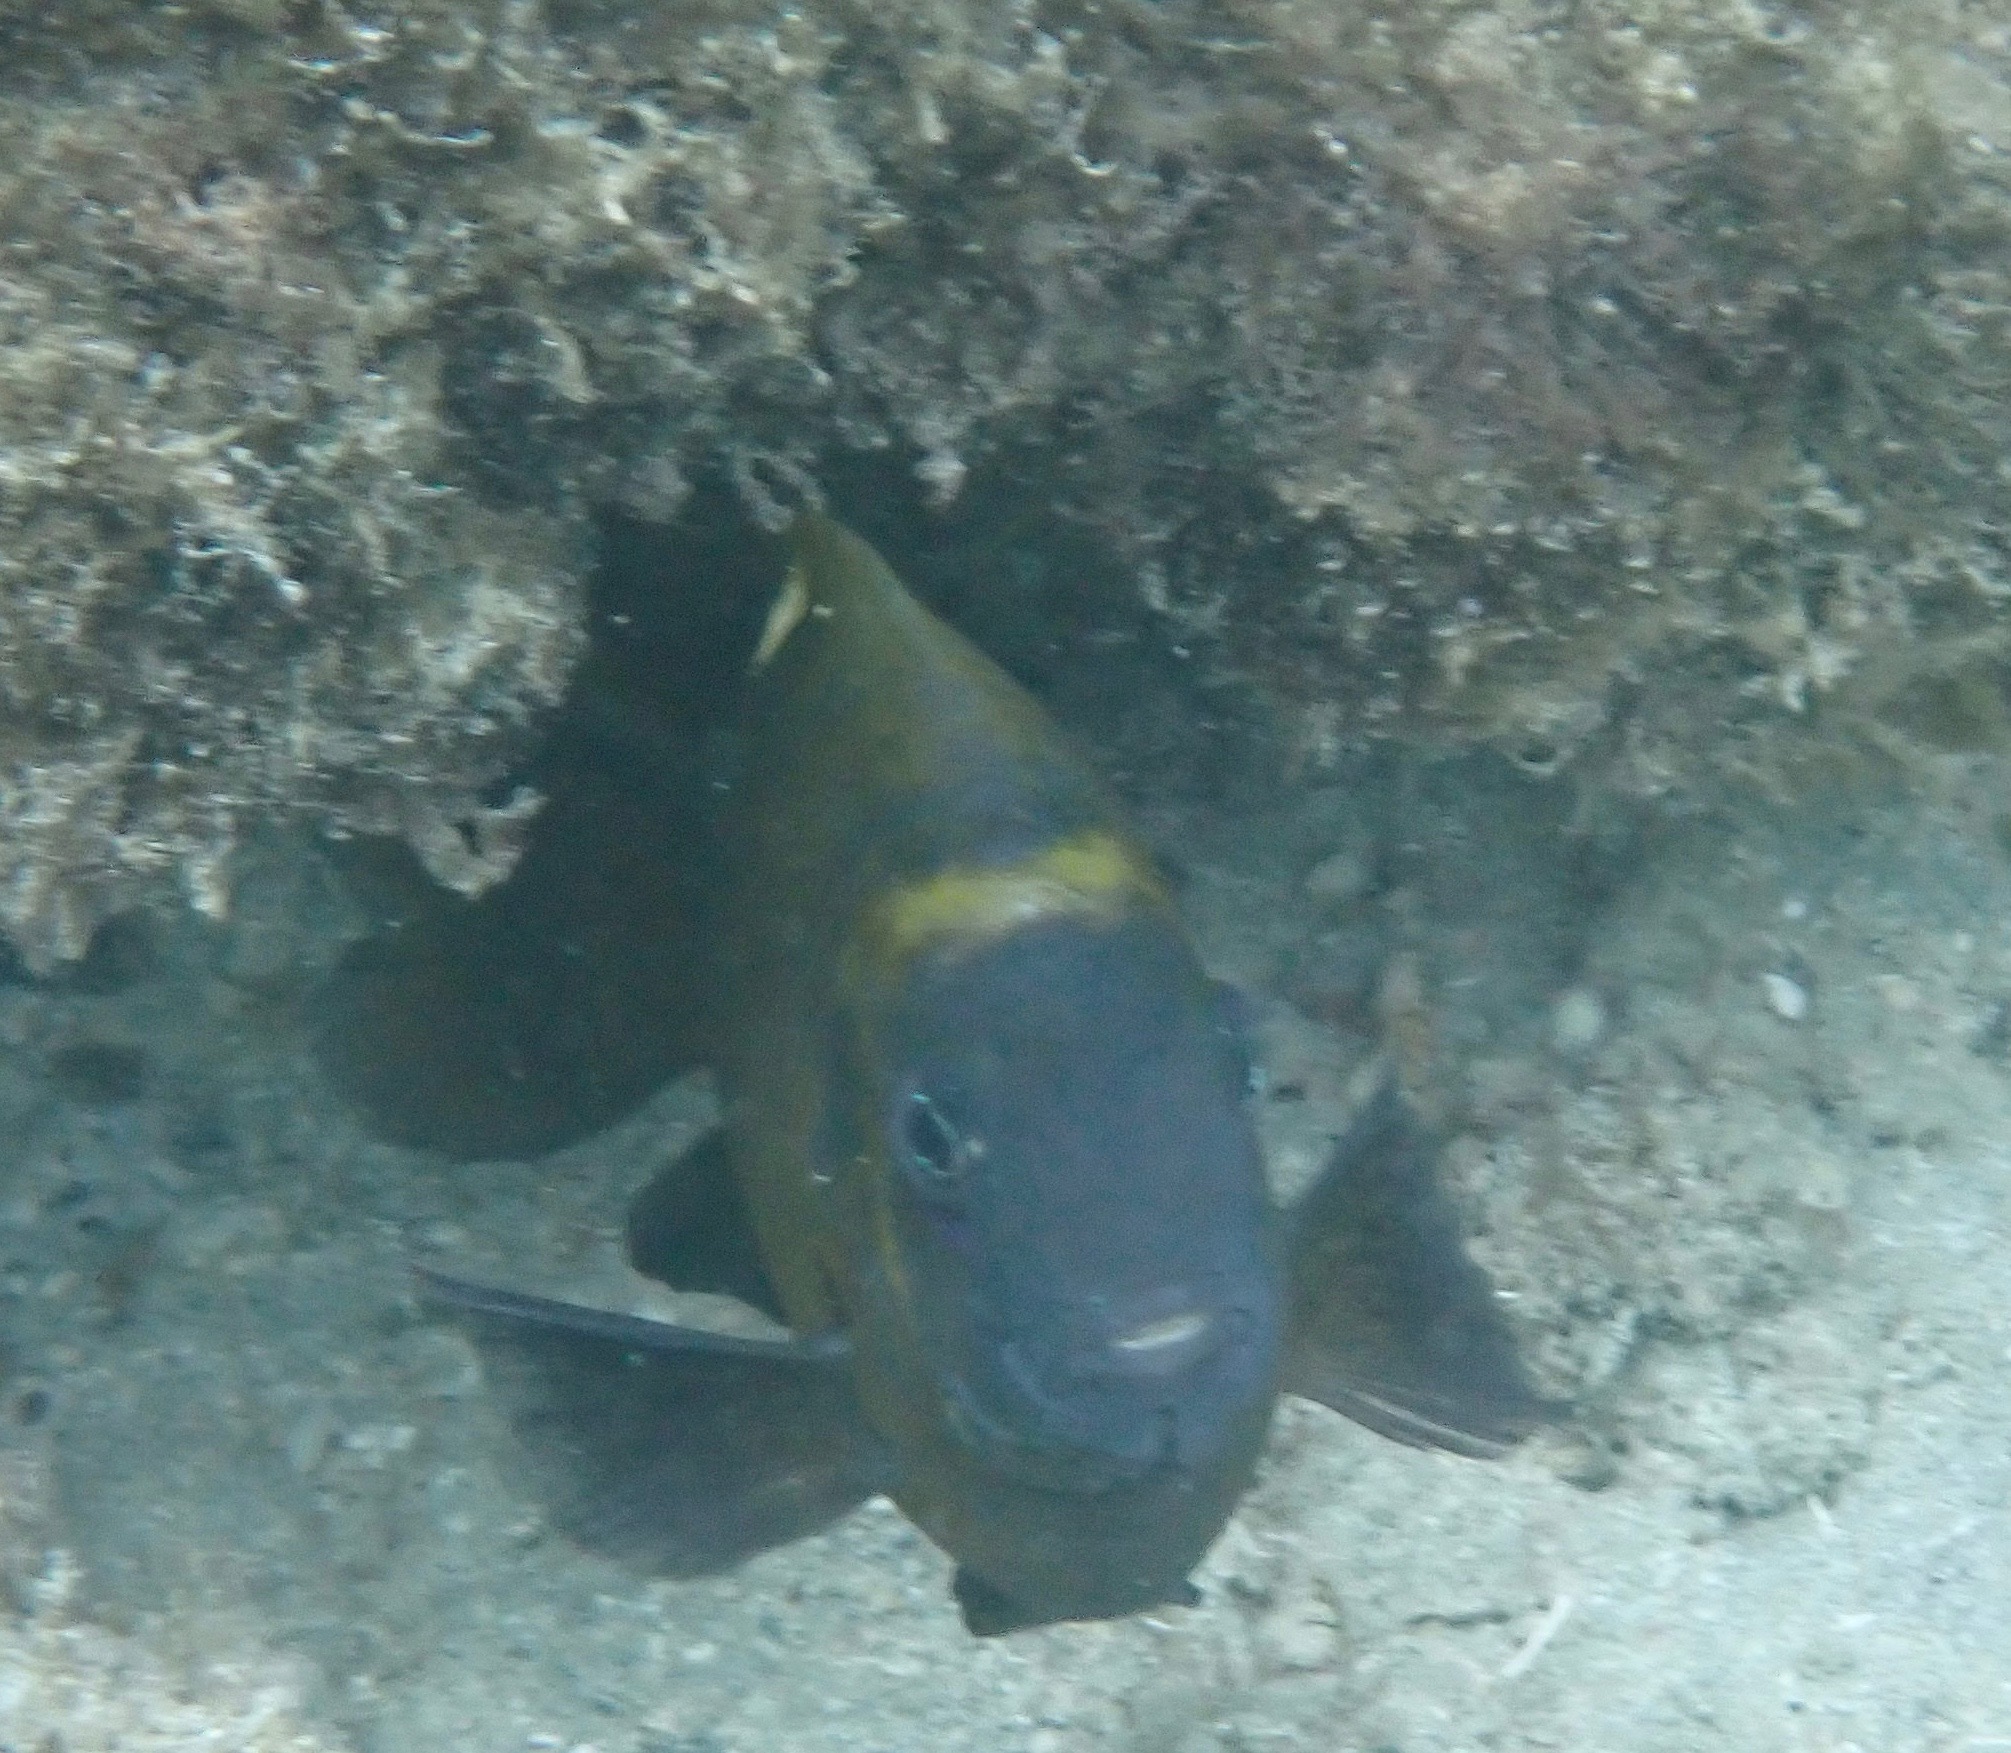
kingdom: Animalia
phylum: Chordata
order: Perciformes
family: Pomacentridae
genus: Dischistodus
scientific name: Dischistodus chrysopoecilus
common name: White-spot damsel
